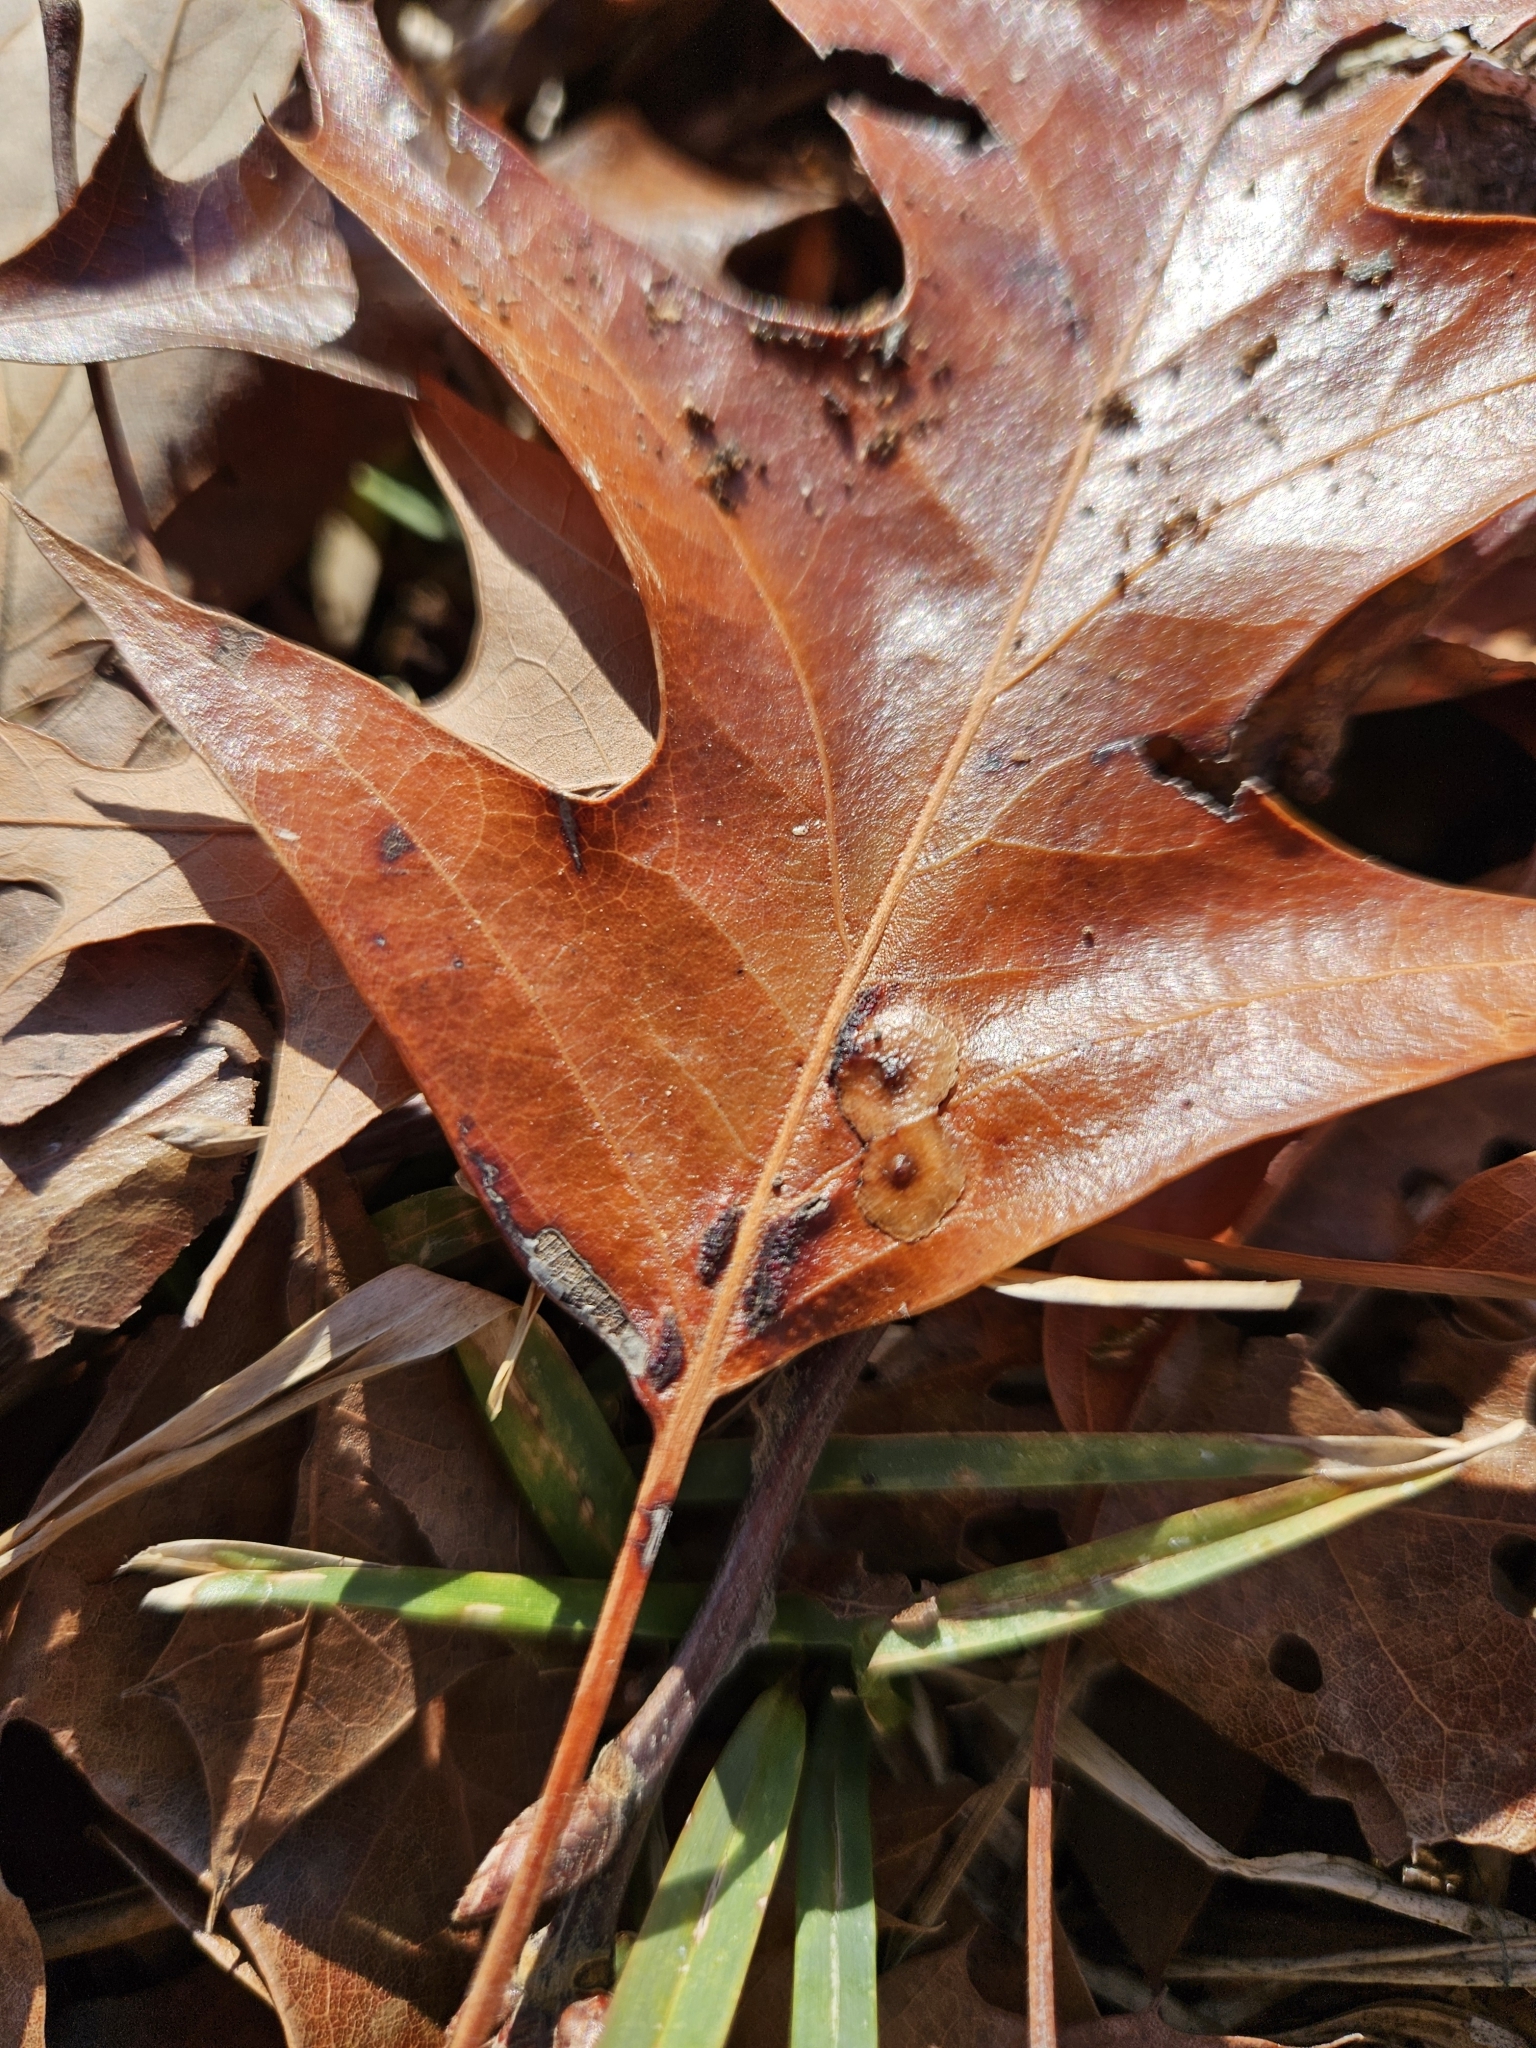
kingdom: Animalia
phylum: Arthropoda
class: Insecta
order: Diptera
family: Cecidomyiidae
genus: Macrodiplosis
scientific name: Macrodiplosis q-orucum
